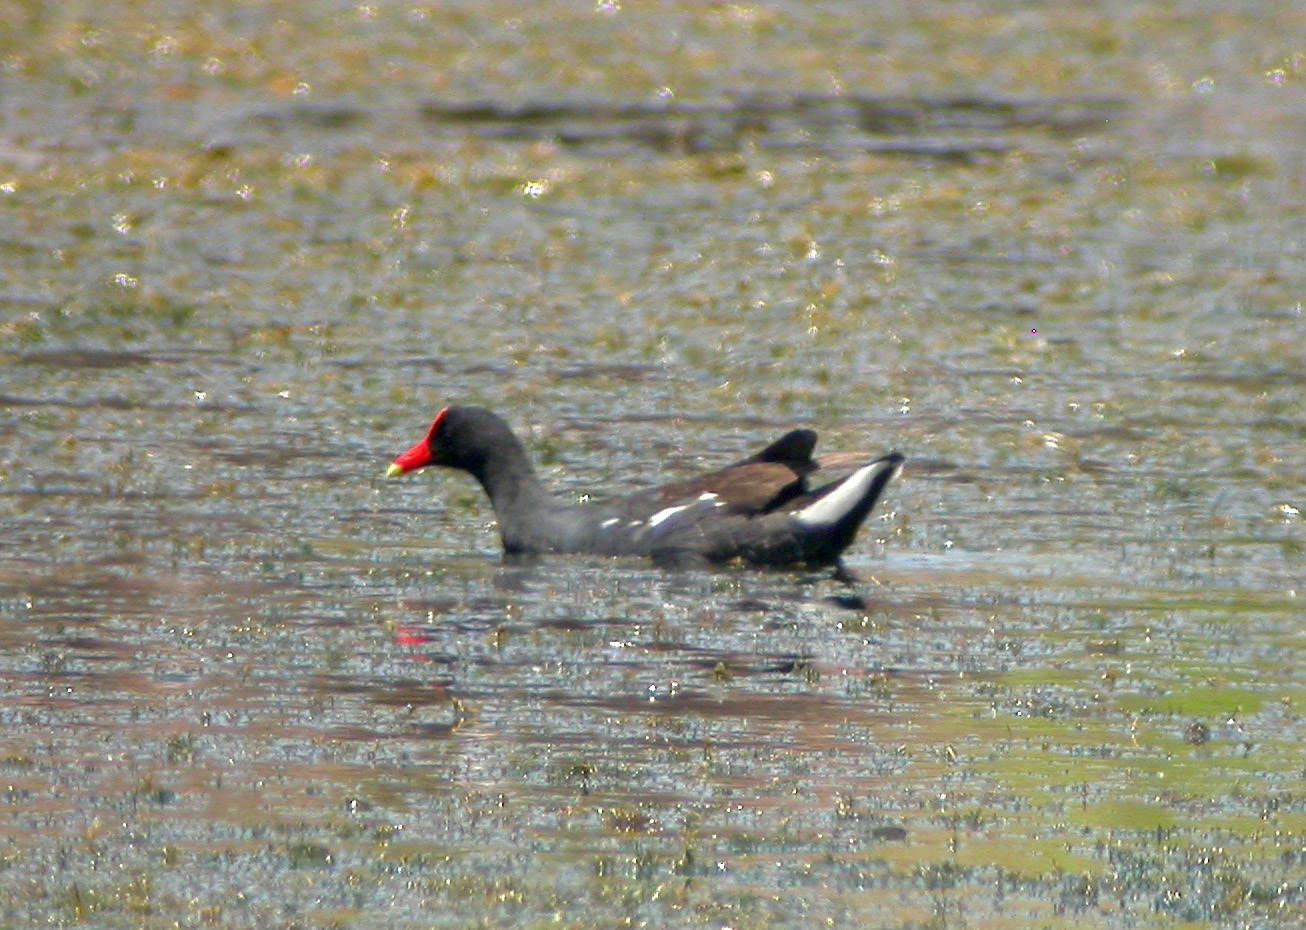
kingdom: Animalia
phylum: Chordata
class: Aves
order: Gruiformes
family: Rallidae
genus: Gallinula
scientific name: Gallinula chloropus
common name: Common moorhen
